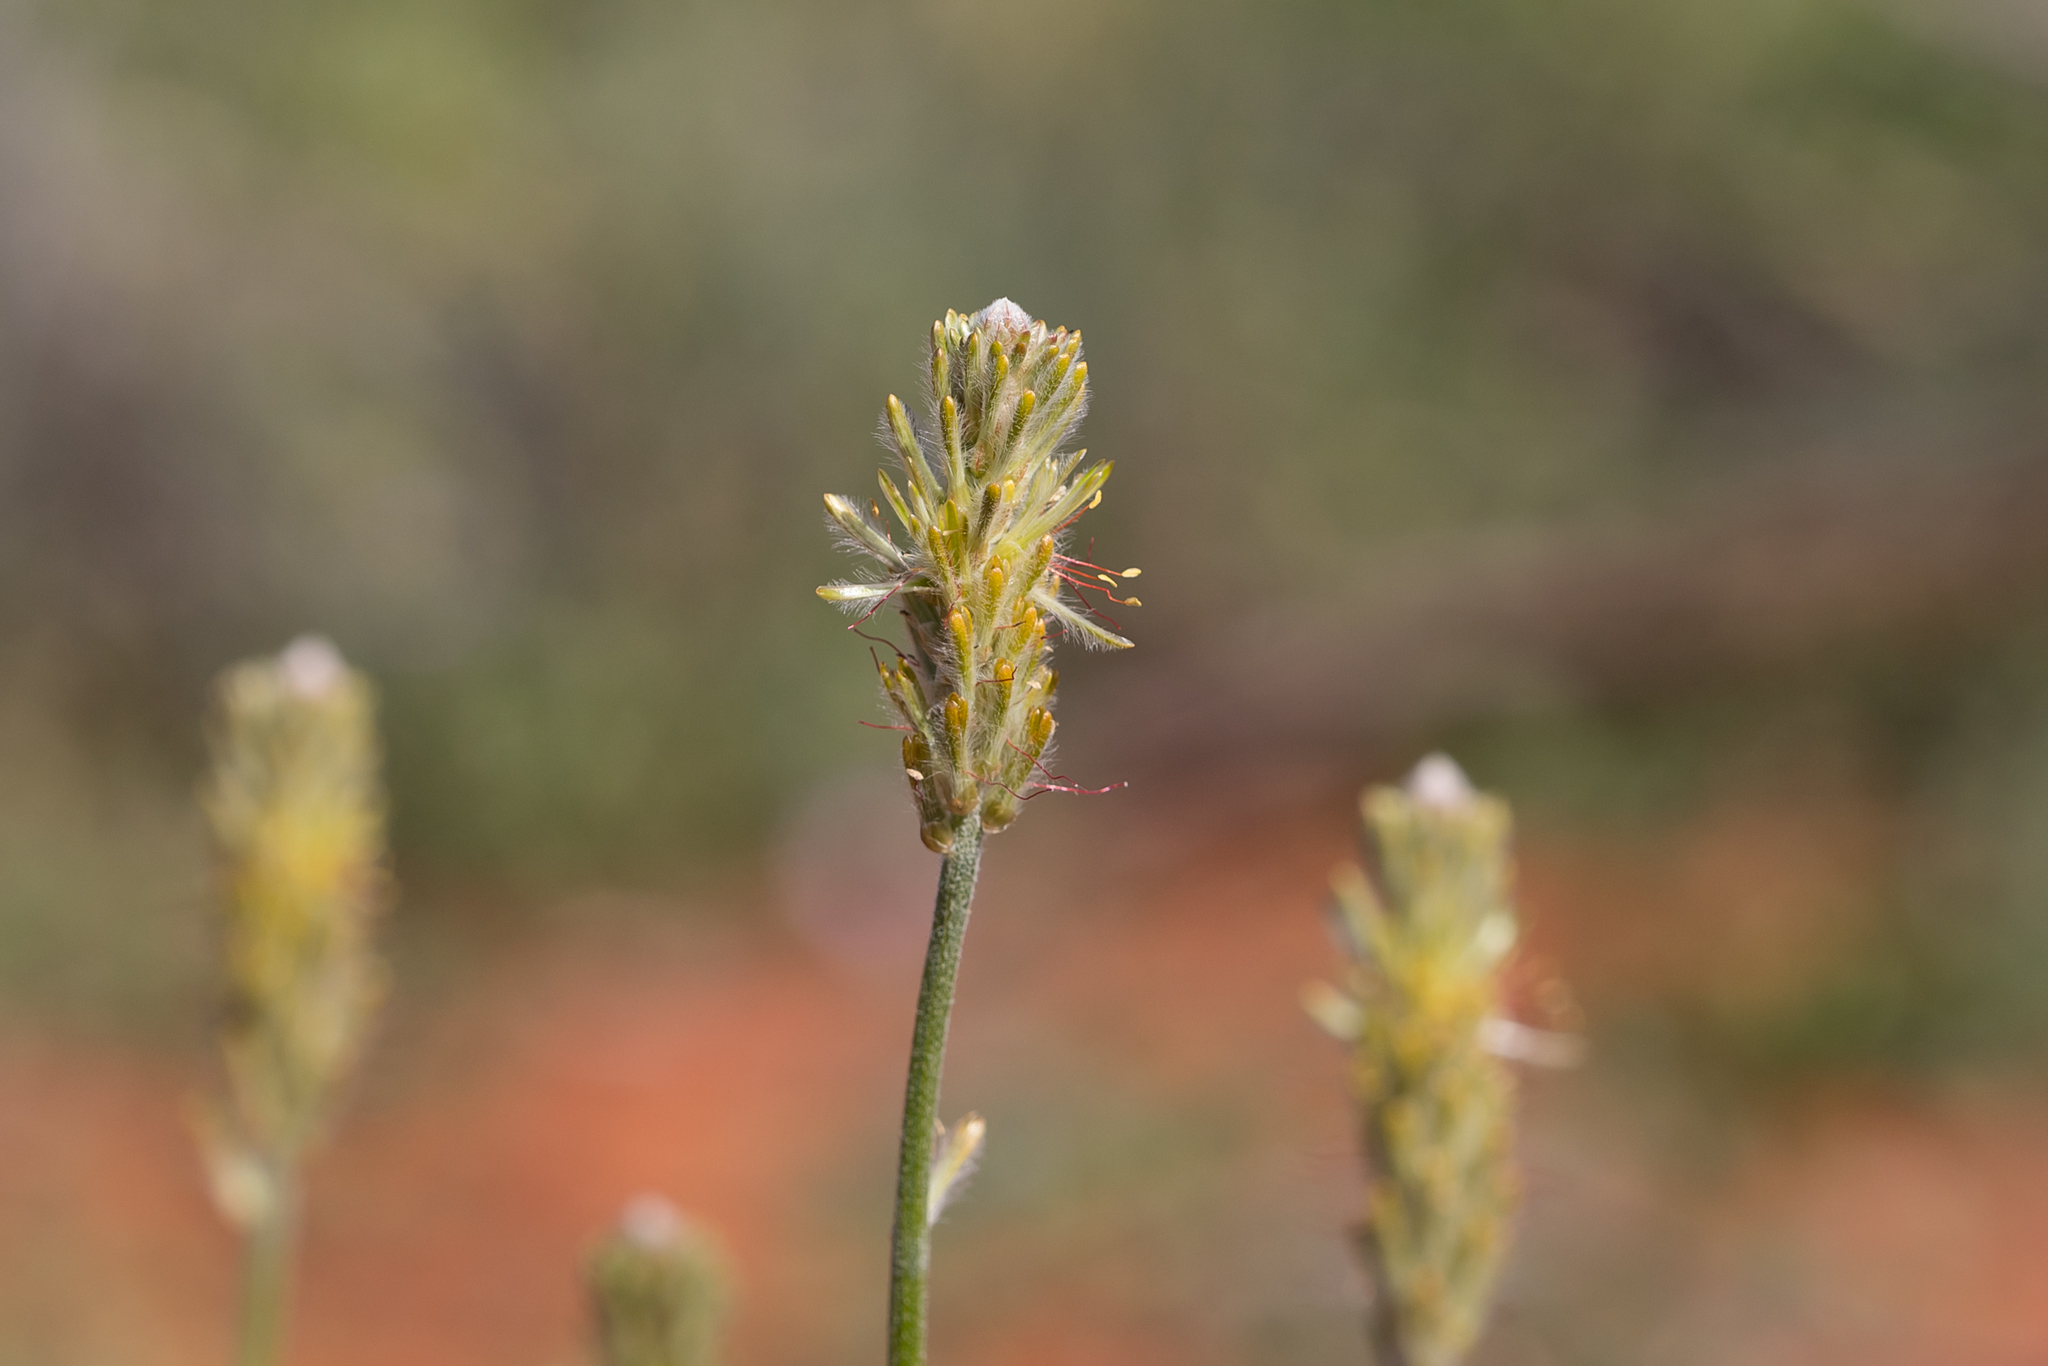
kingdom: Plantae
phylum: Tracheophyta
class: Magnoliopsida
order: Caryophyllales
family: Amaranthaceae
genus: Ptilotus
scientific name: Ptilotus polystachyus
